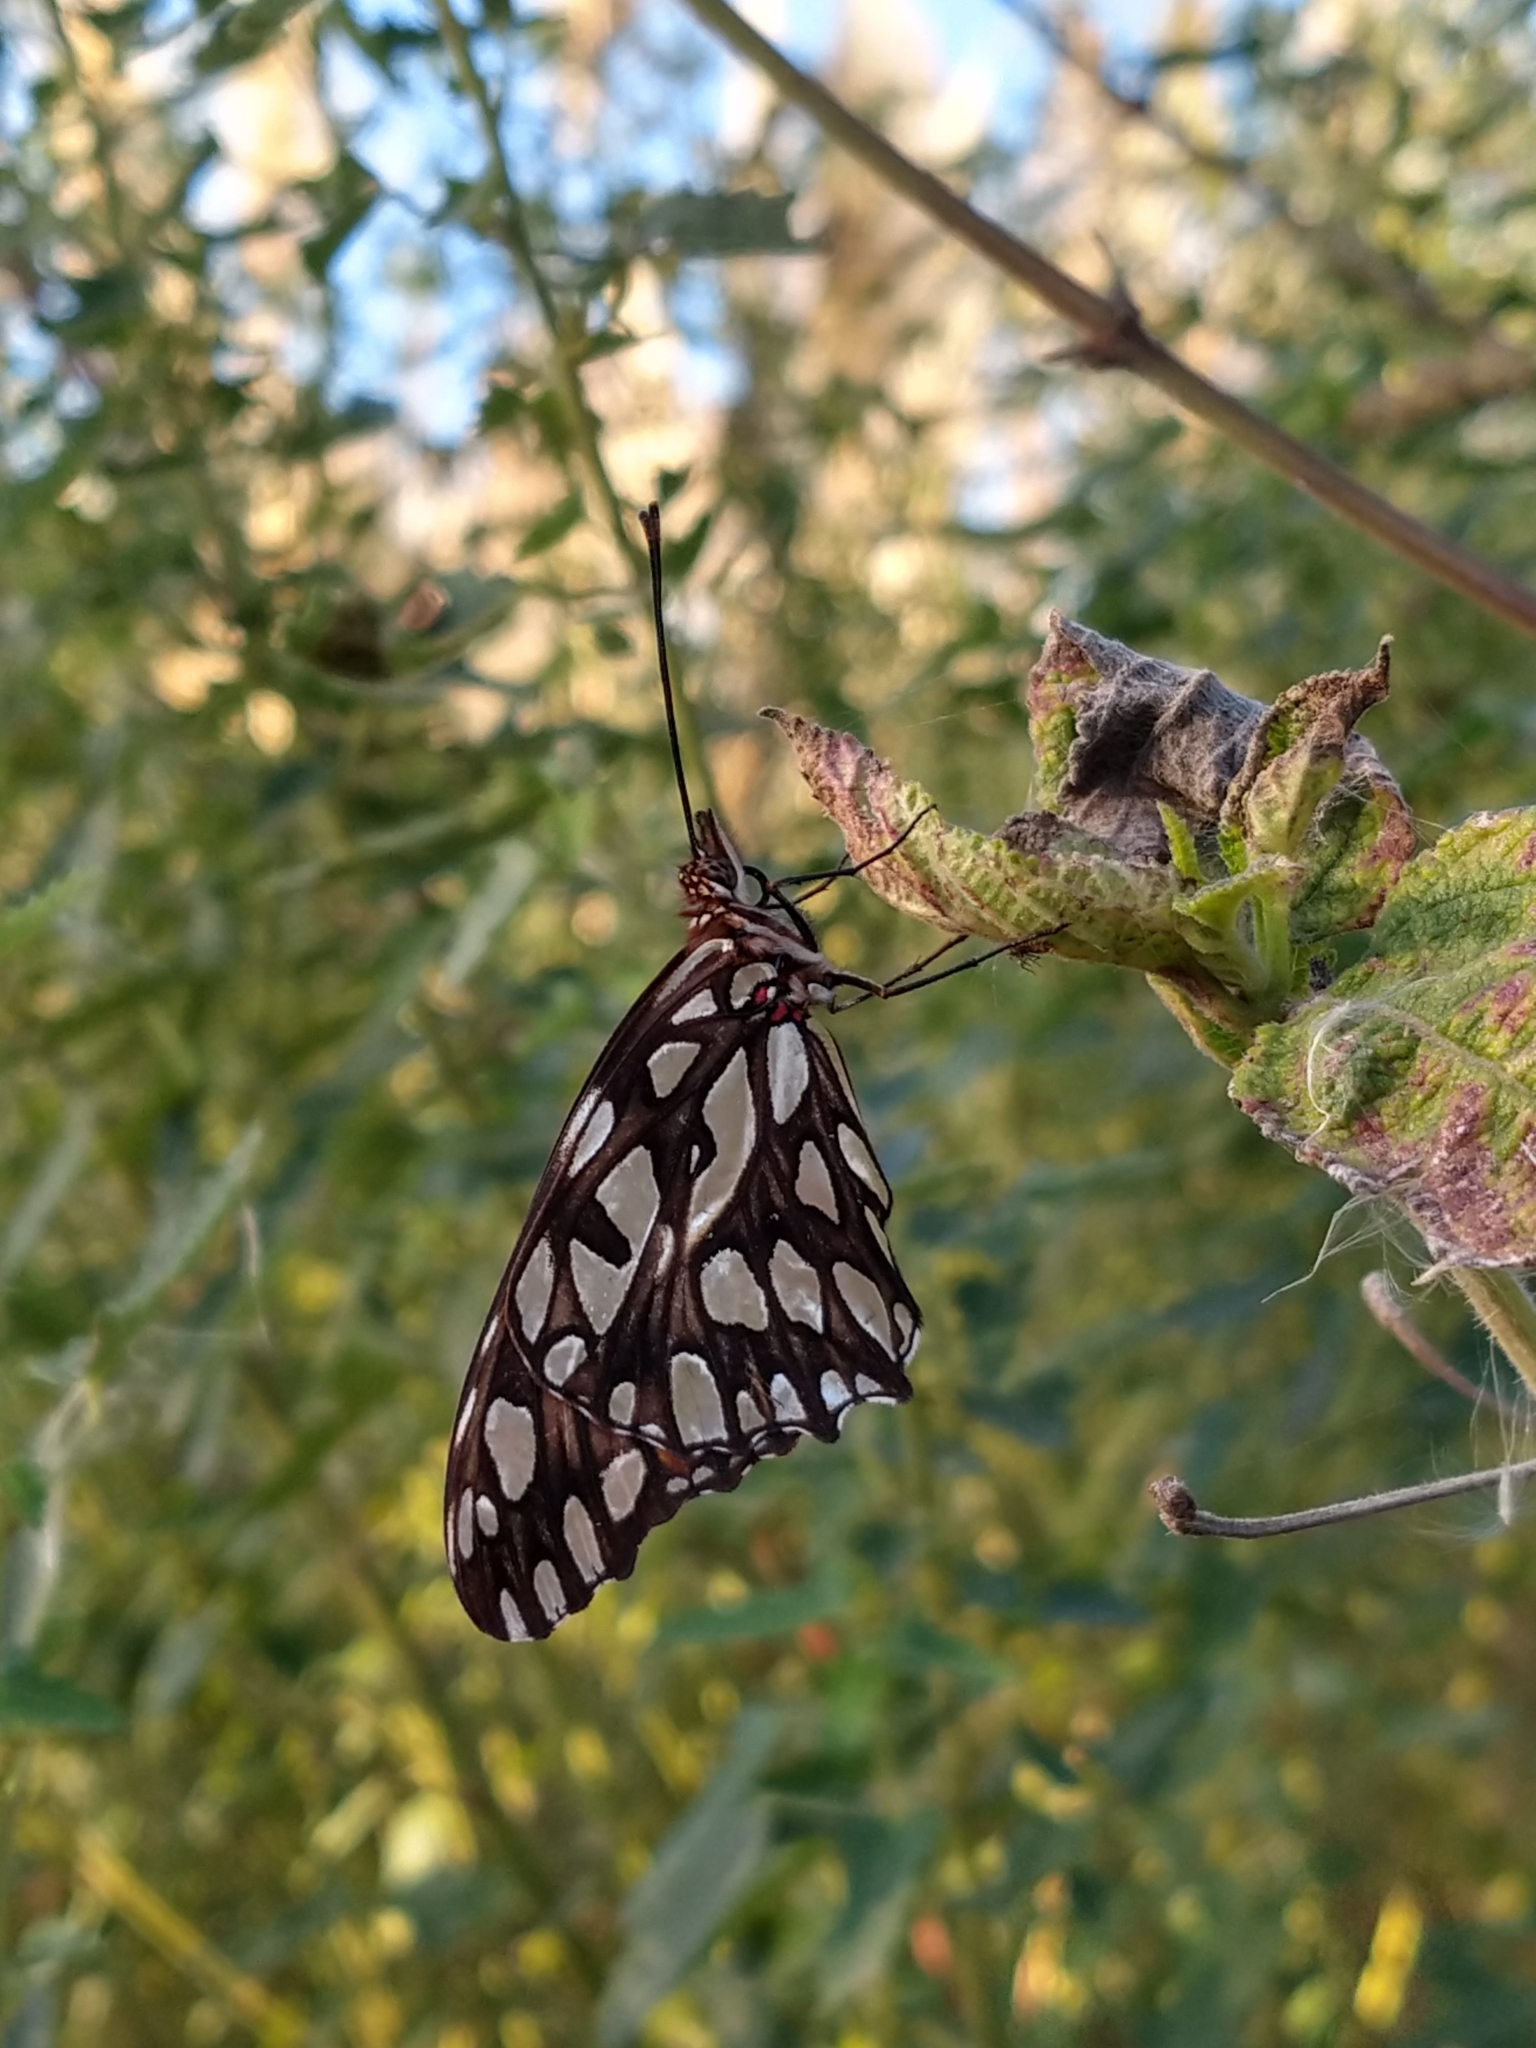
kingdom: Animalia
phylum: Arthropoda
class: Insecta
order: Lepidoptera
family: Nymphalidae
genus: Dione
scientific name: Dione moneta
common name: Mexican silverspot
